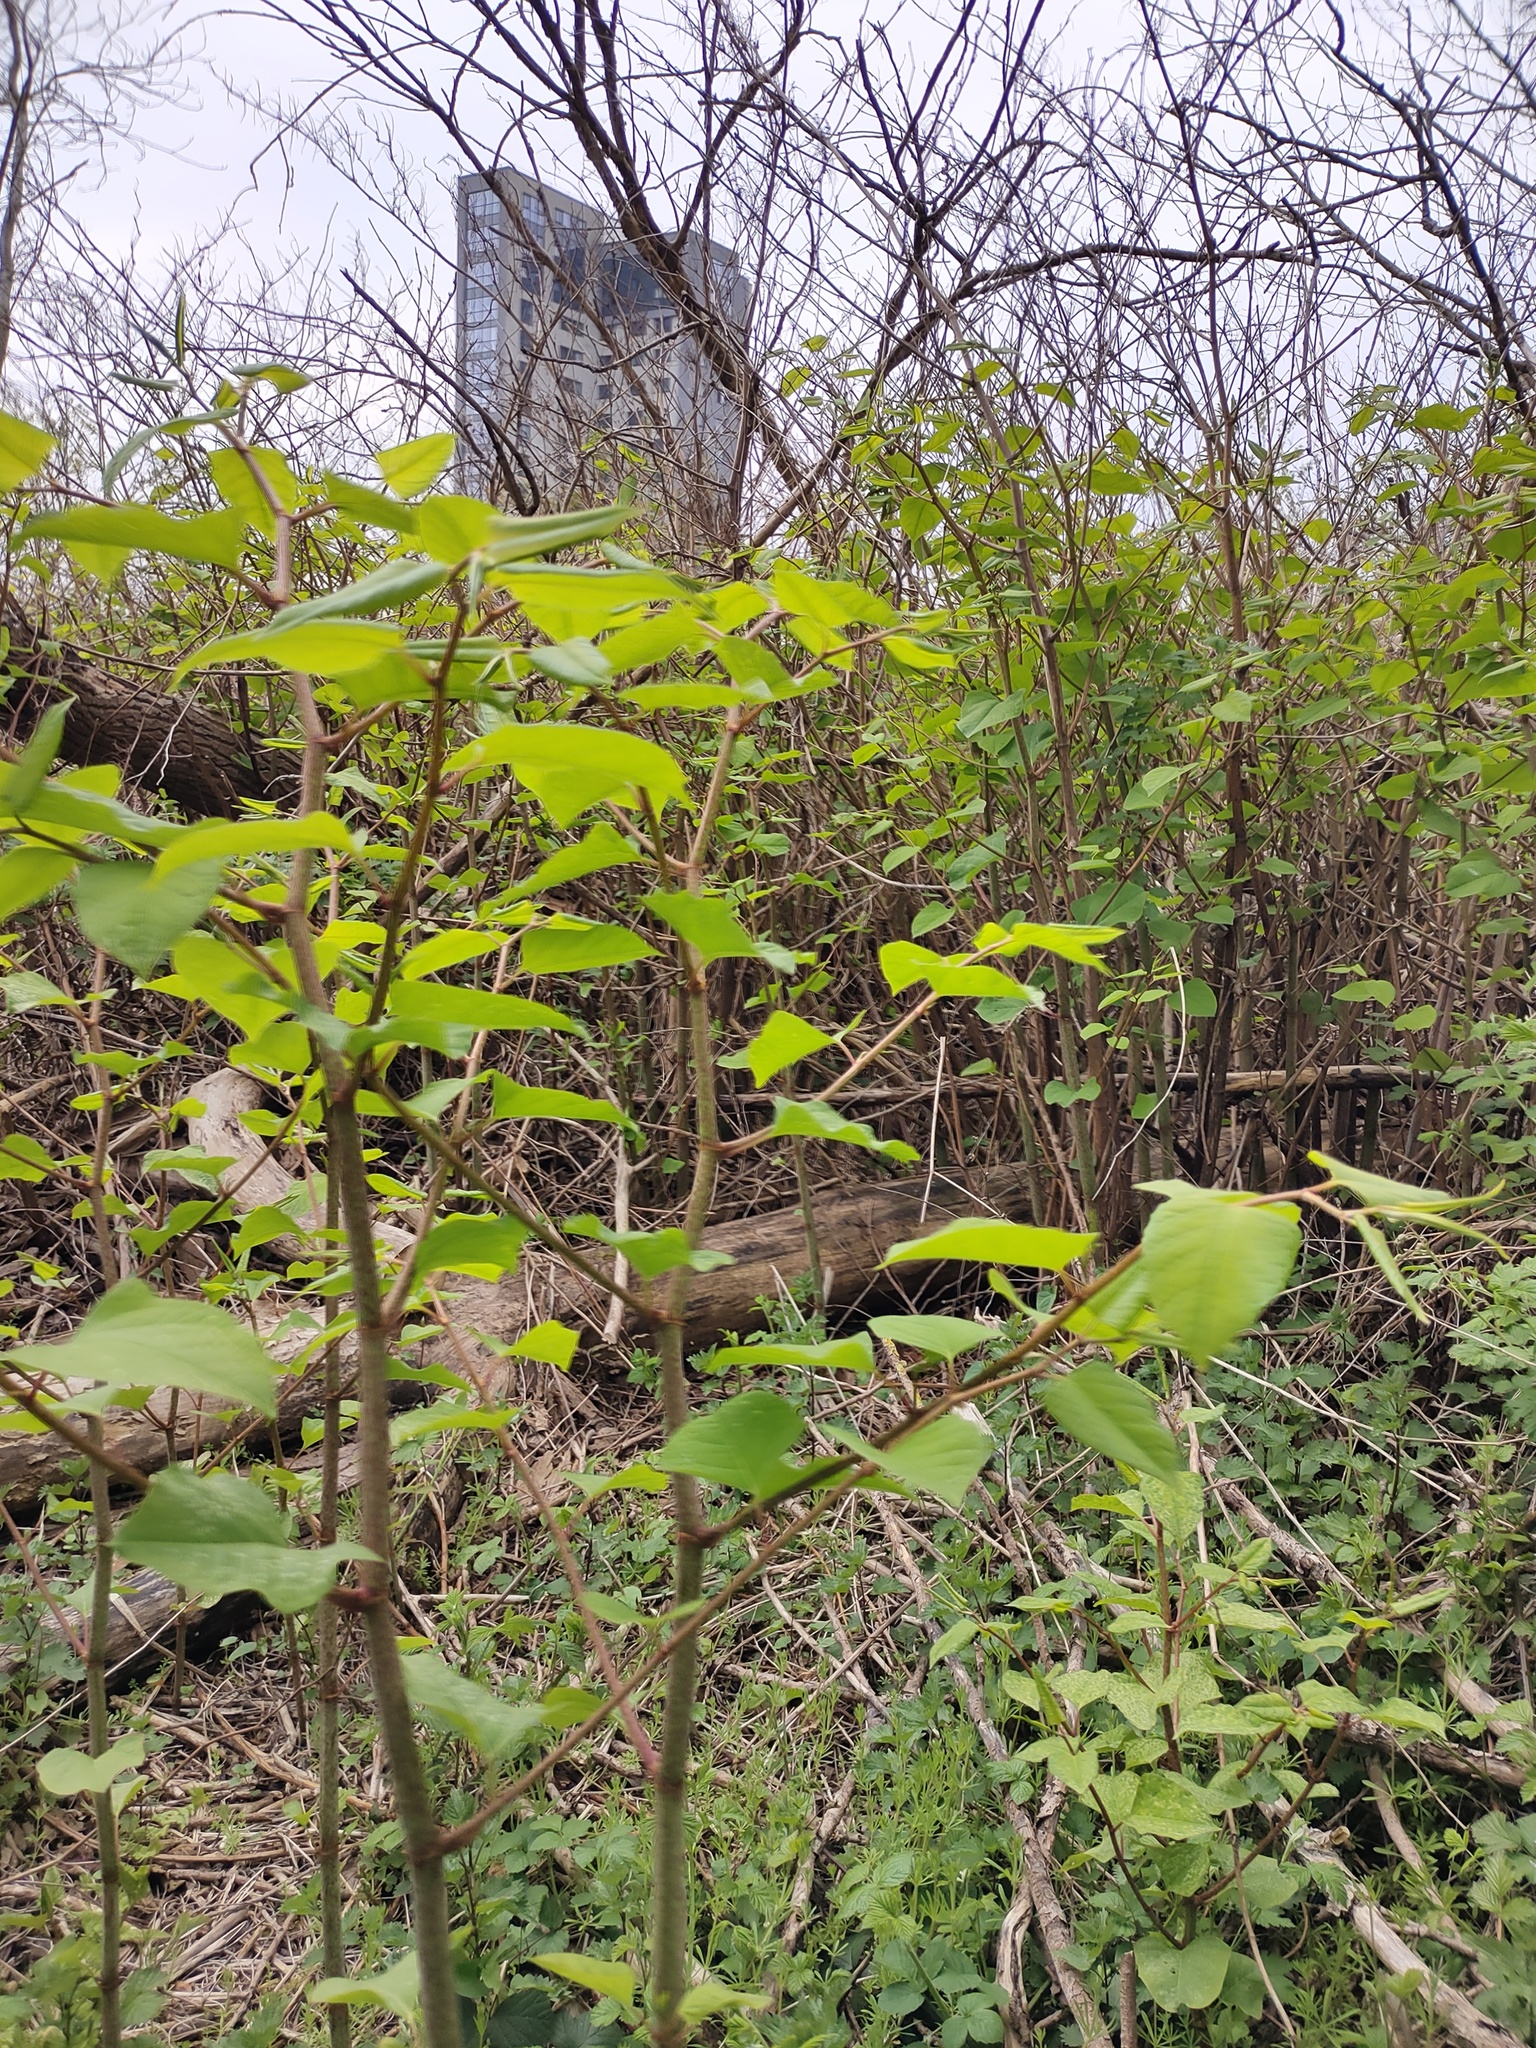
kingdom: Plantae
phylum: Tracheophyta
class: Magnoliopsida
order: Caryophyllales
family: Polygonaceae
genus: Reynoutria
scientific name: Reynoutria japonica
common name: Japanese knotweed
